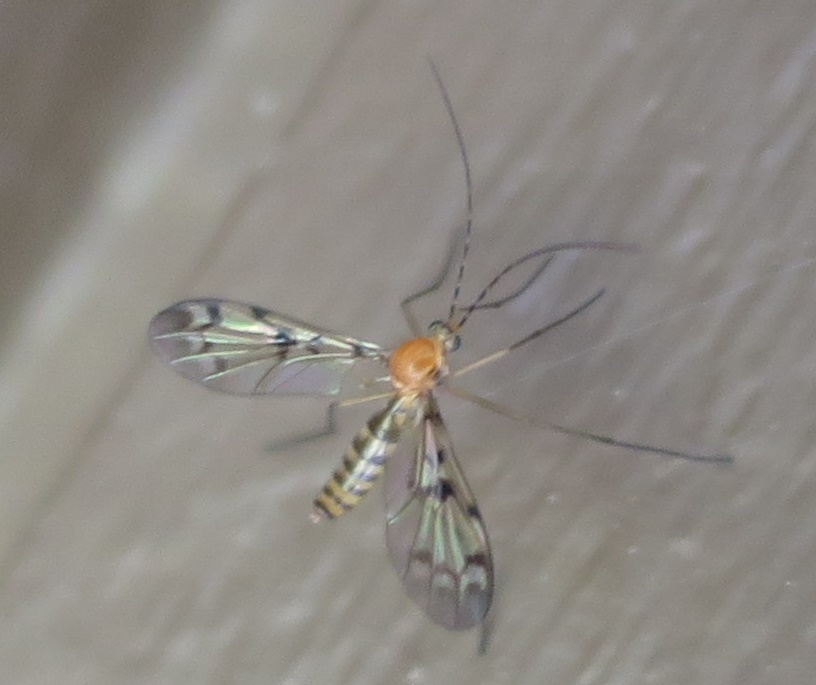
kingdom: Animalia
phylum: Arthropoda
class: Insecta
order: Diptera
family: Keroplatidae
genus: Chiasmoneura
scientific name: Chiasmoneura milligani
